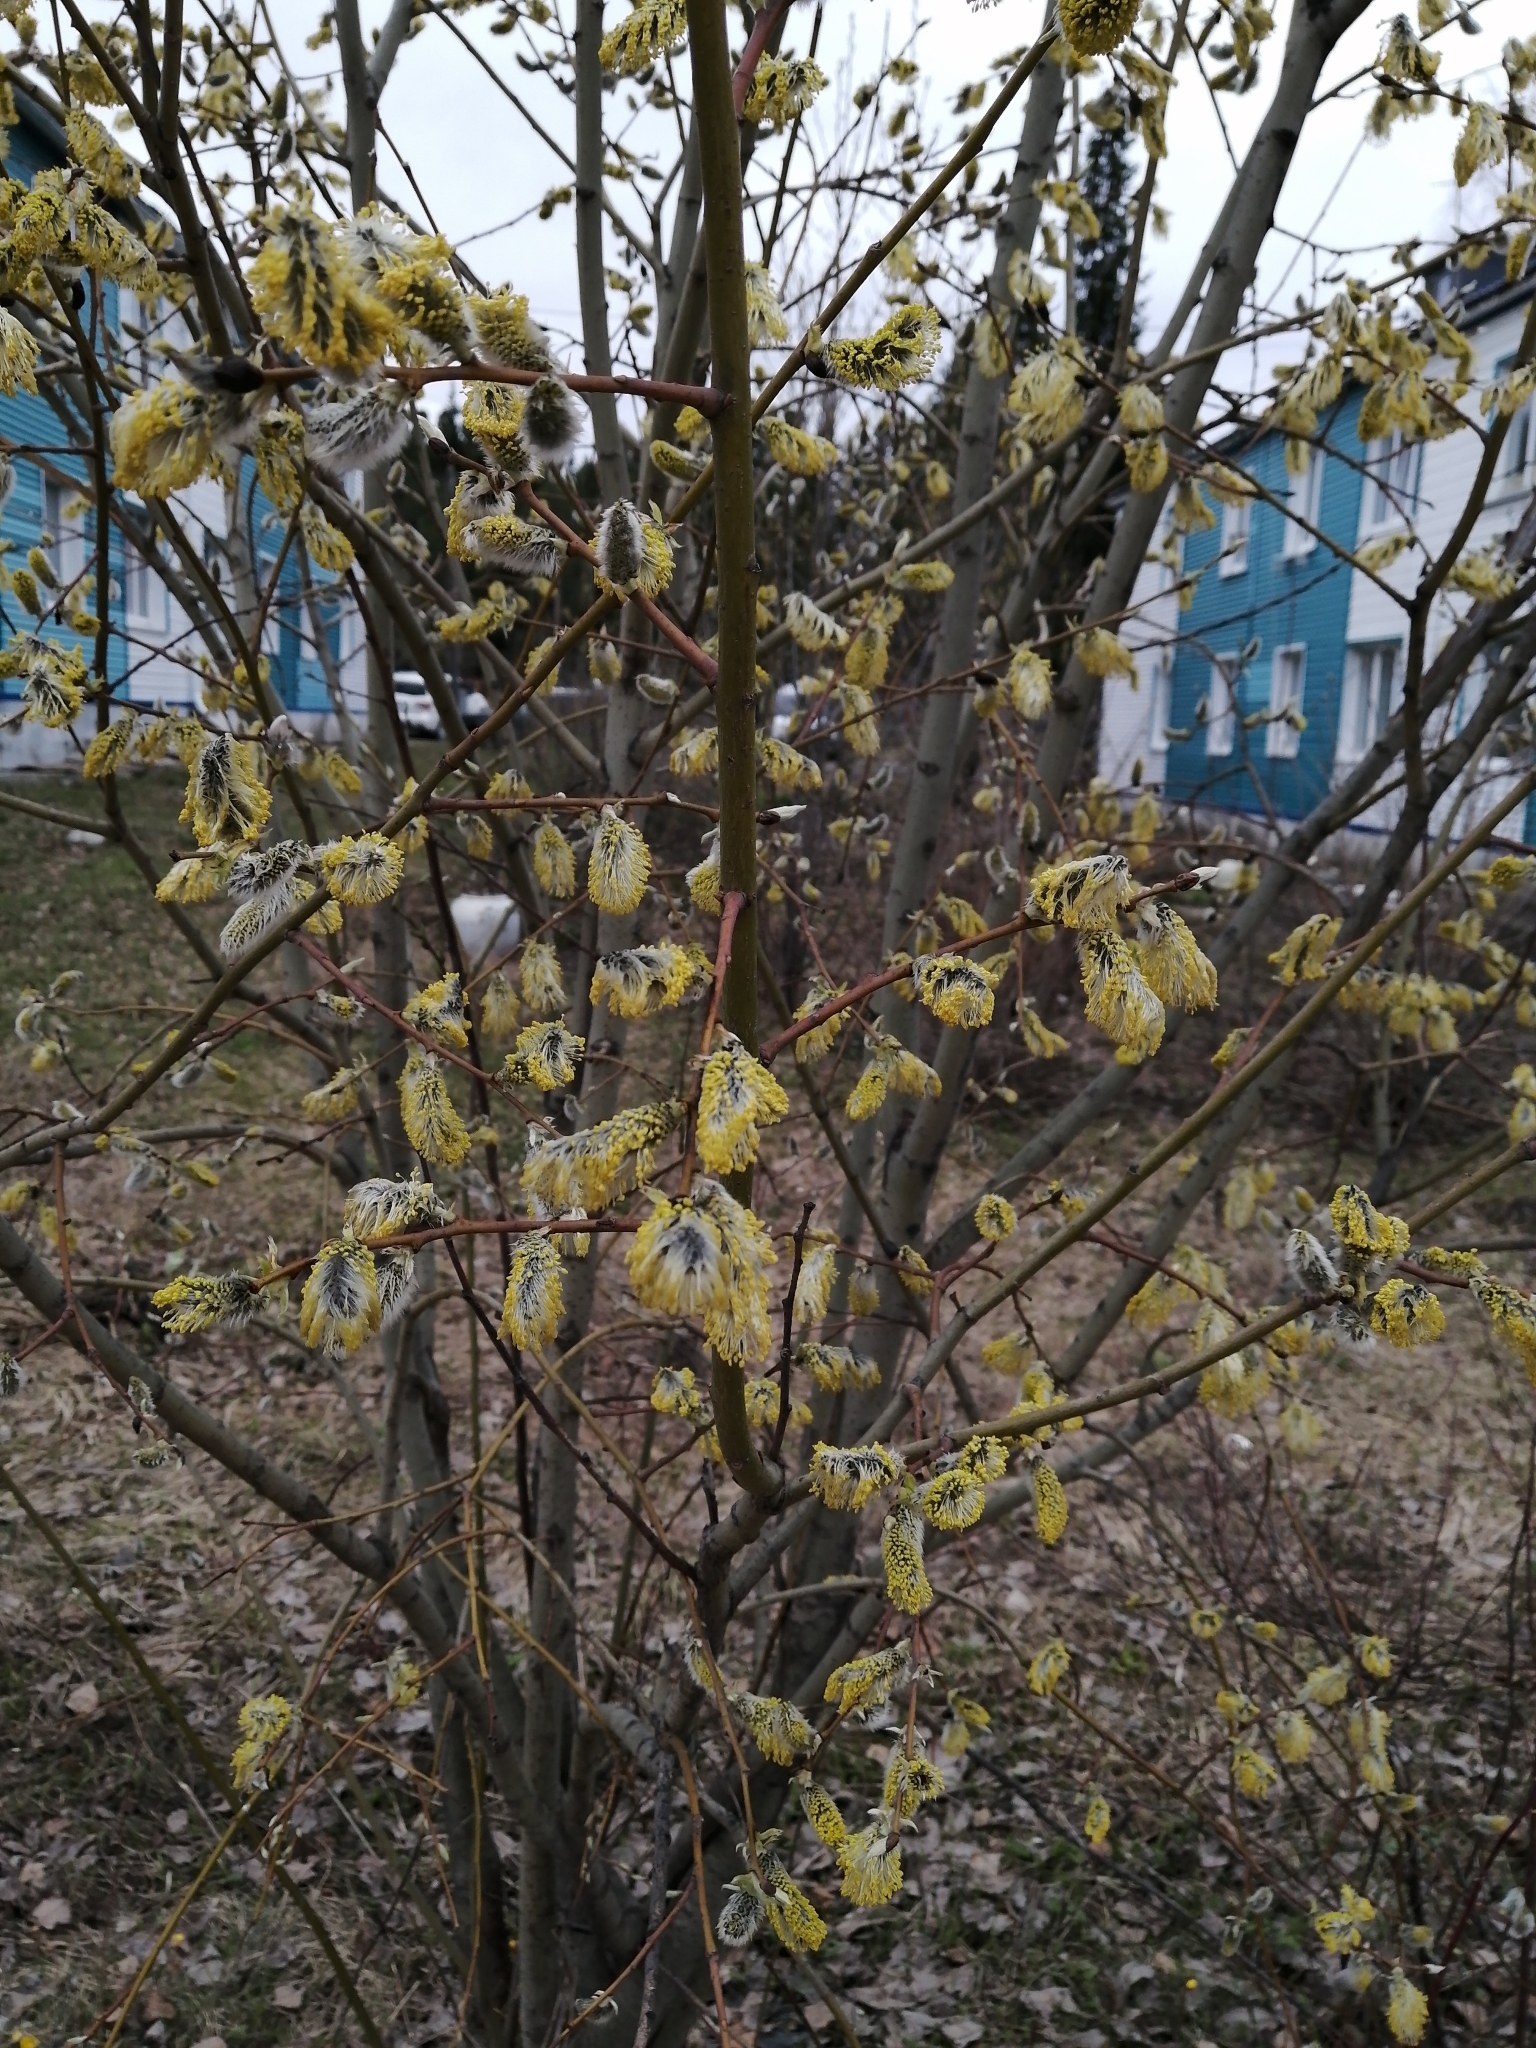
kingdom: Plantae
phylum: Tracheophyta
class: Magnoliopsida
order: Malpighiales
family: Salicaceae
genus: Salix
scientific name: Salix caprea
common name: Goat willow
